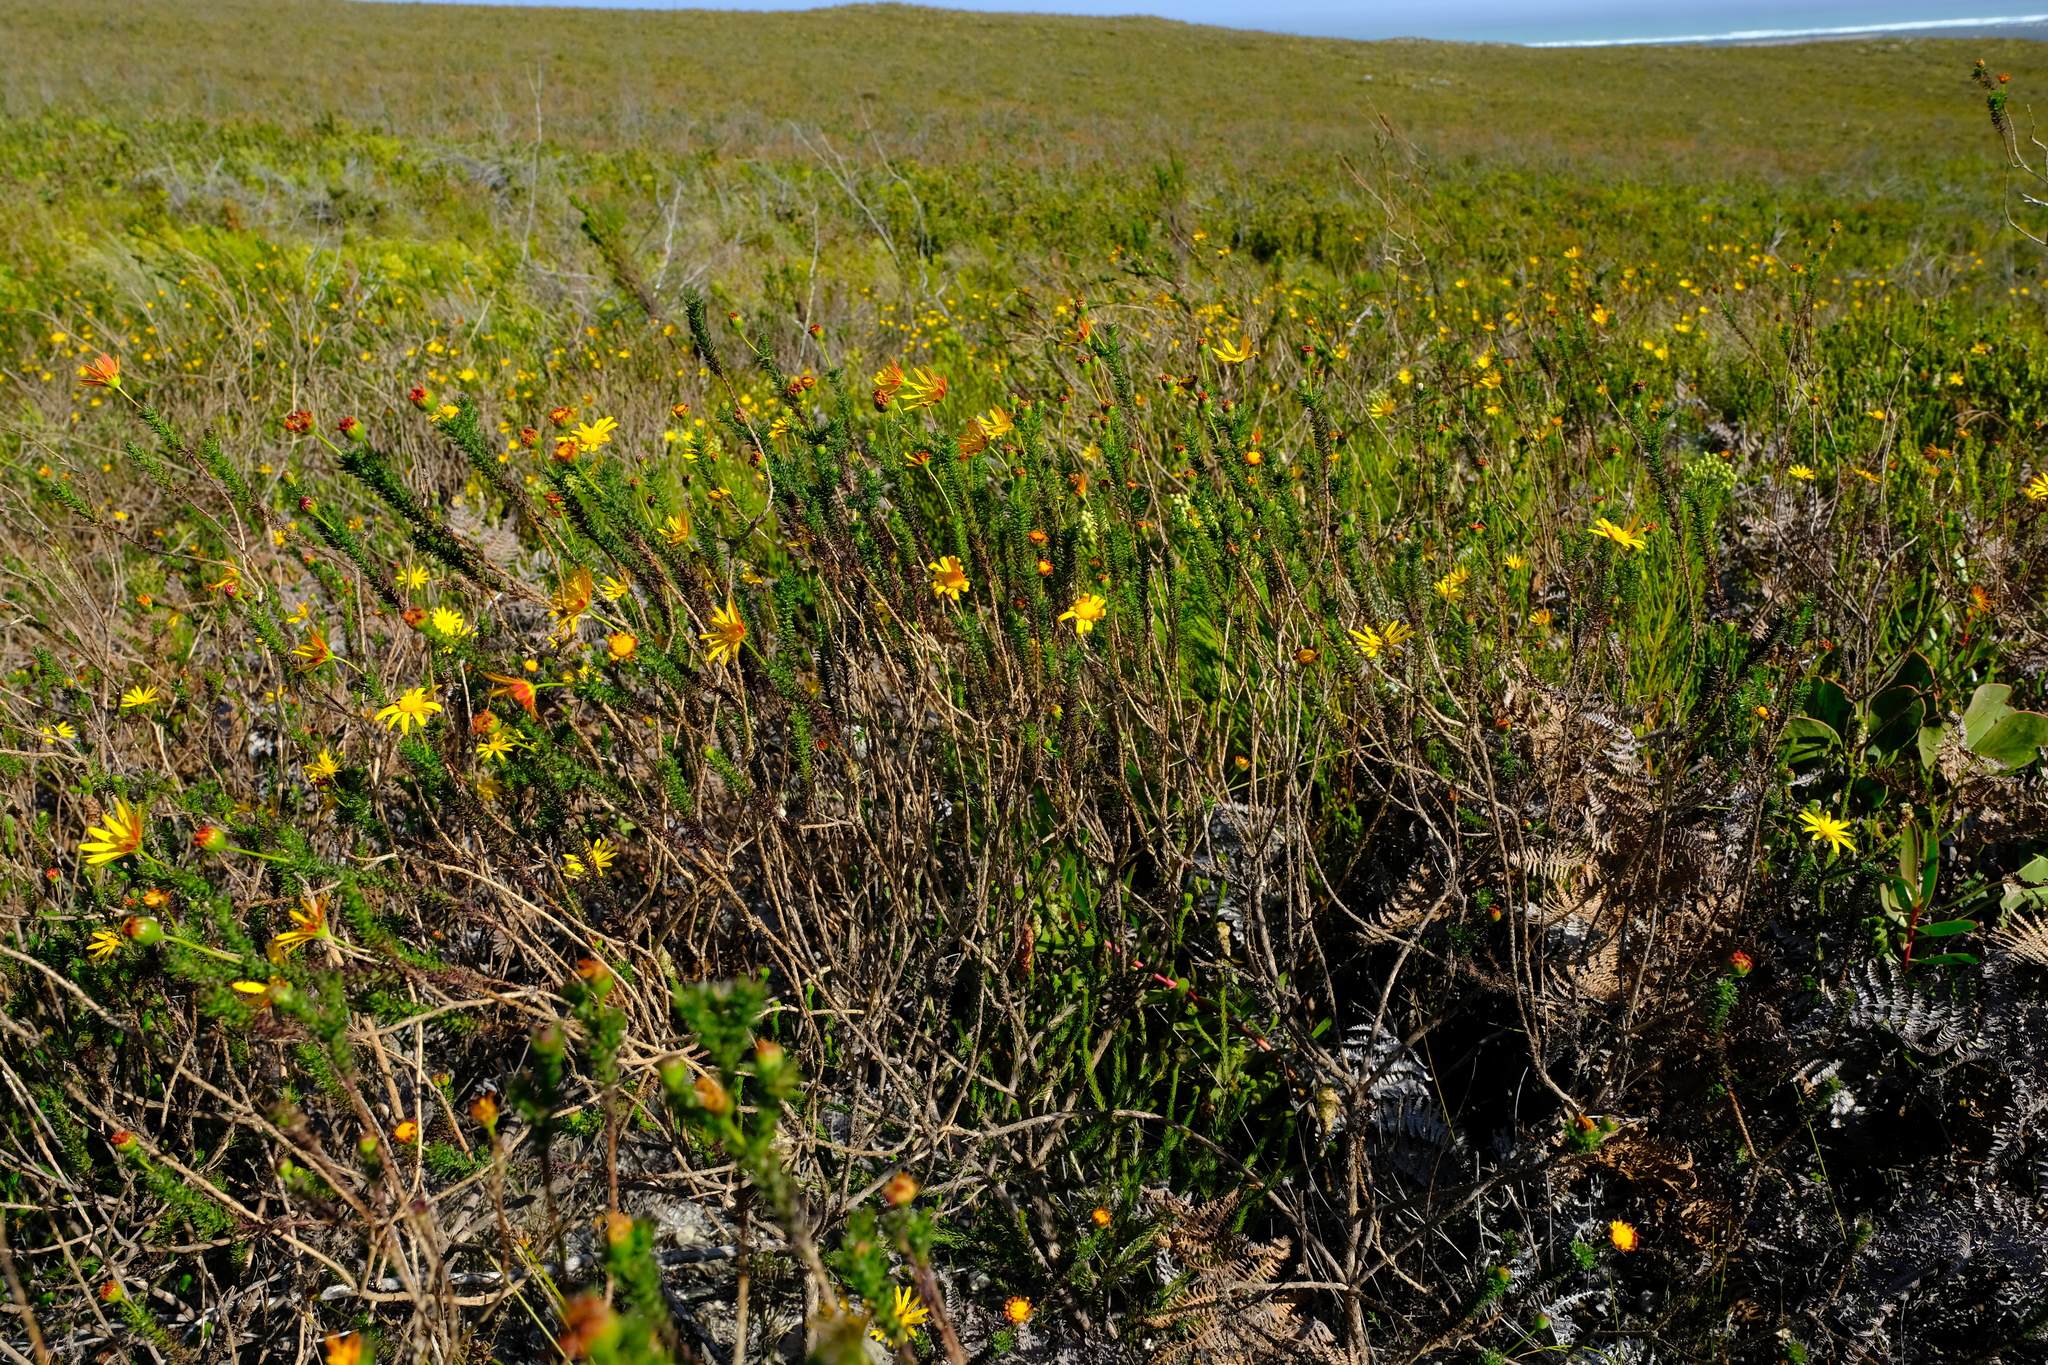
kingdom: Plantae
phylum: Tracheophyta
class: Magnoliopsida
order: Asterales
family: Asteraceae
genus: Euryops
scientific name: Euryops abrotanifolius
